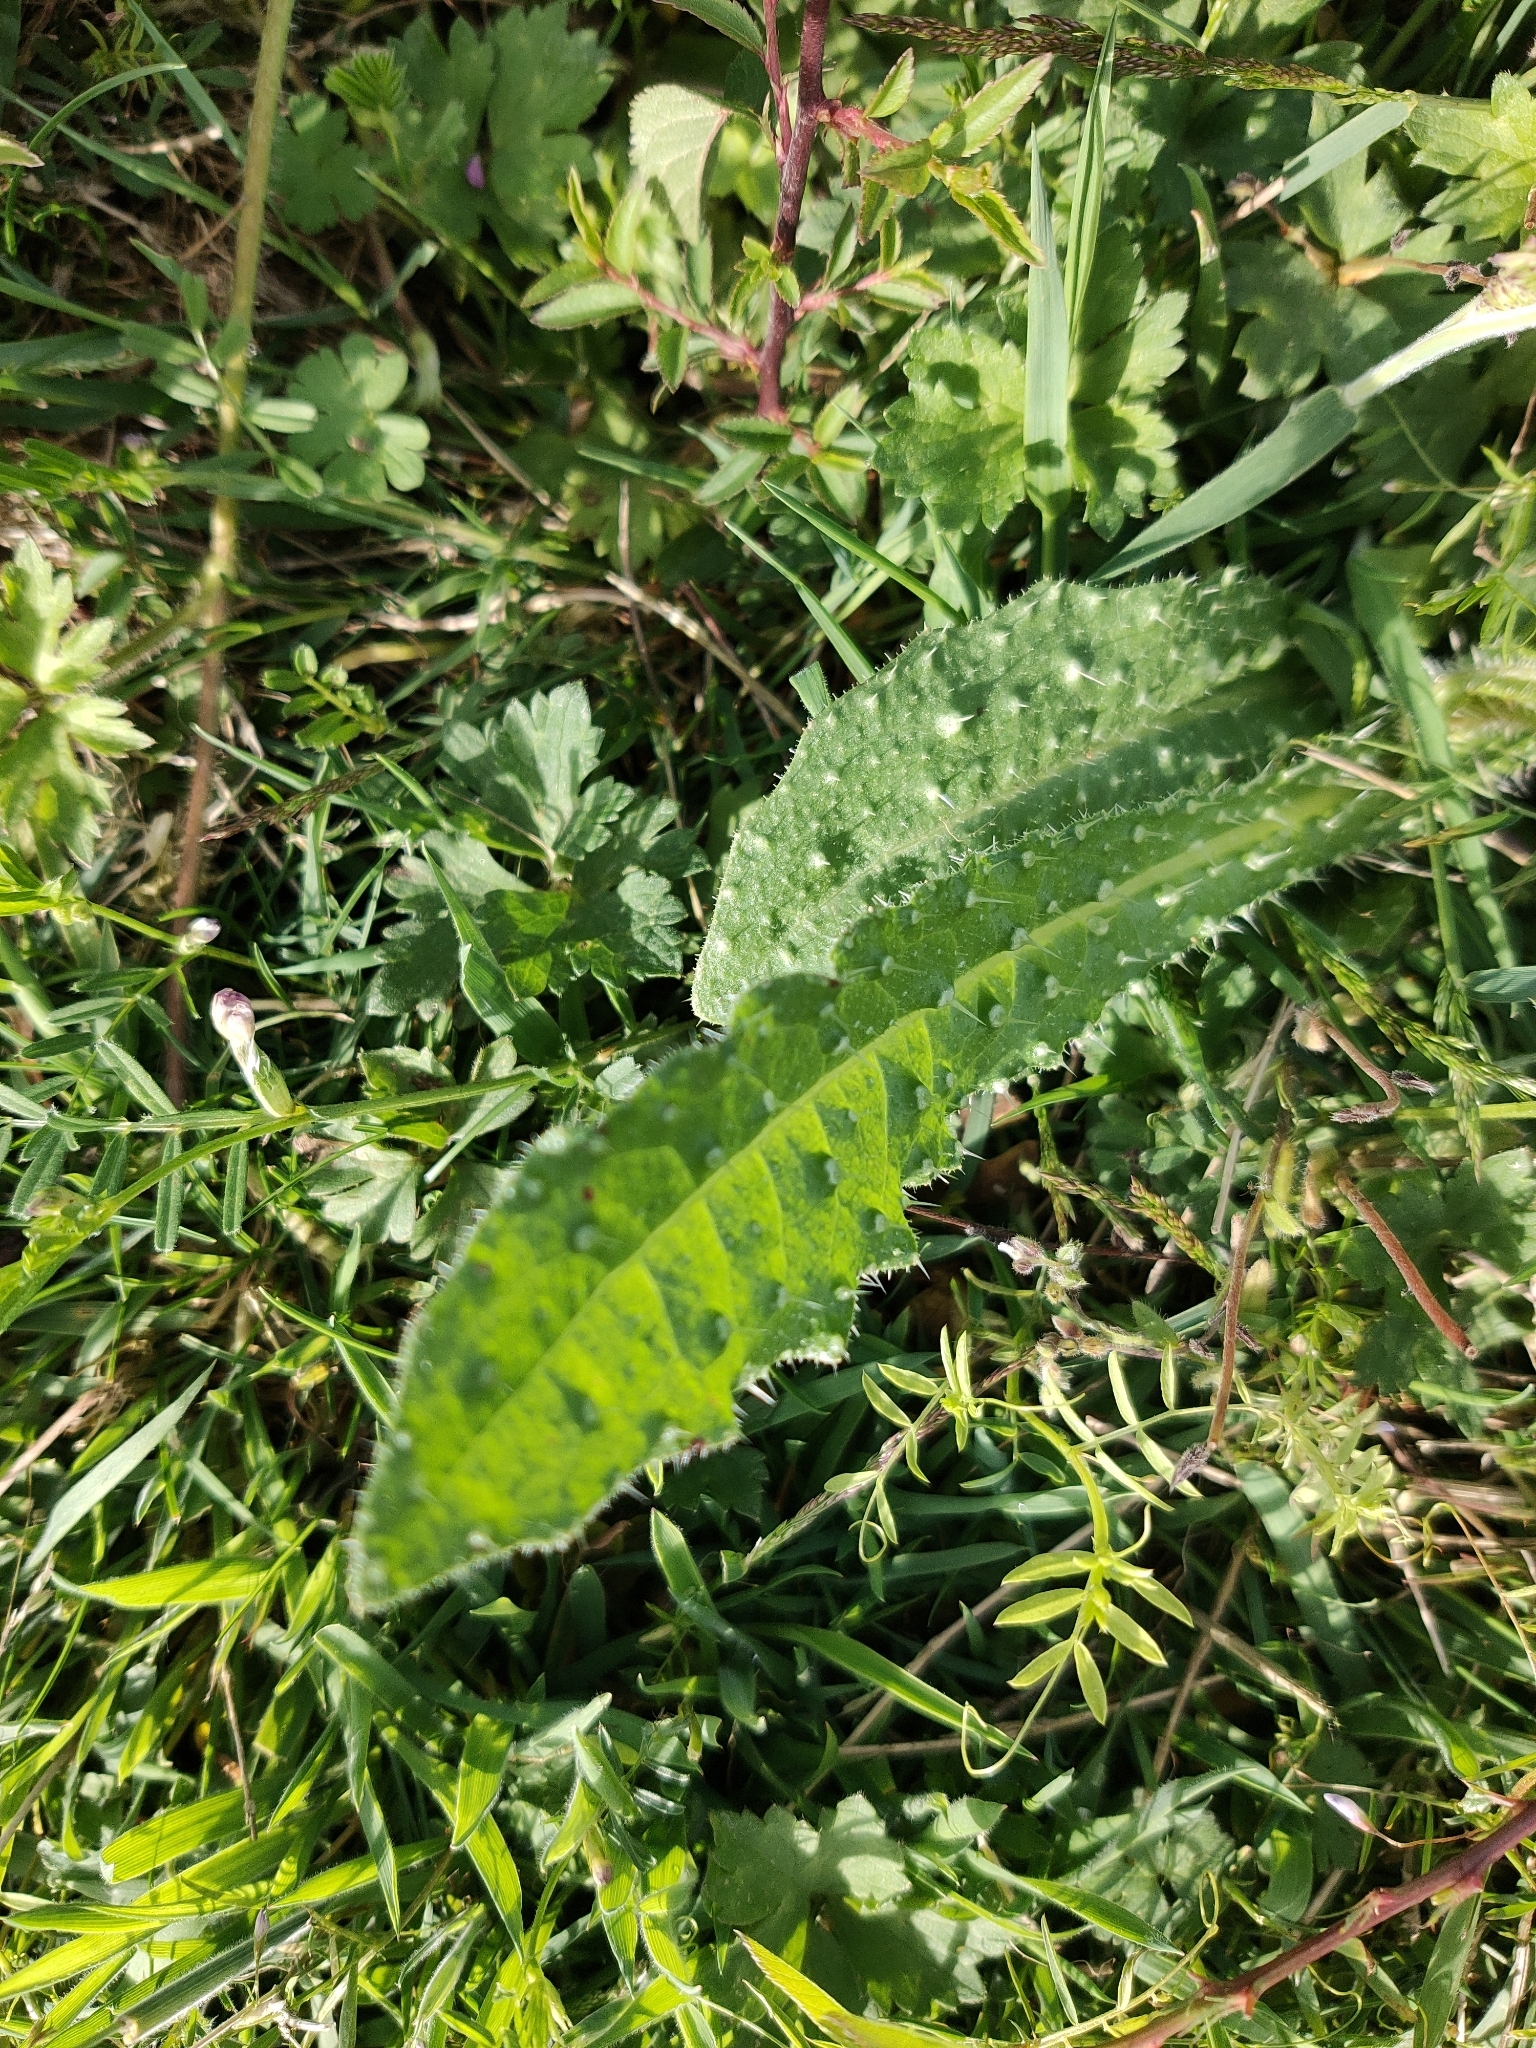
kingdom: Plantae
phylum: Tracheophyta
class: Magnoliopsida
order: Asterales
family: Asteraceae
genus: Helminthotheca
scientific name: Helminthotheca echioides
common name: Ox-tongue
